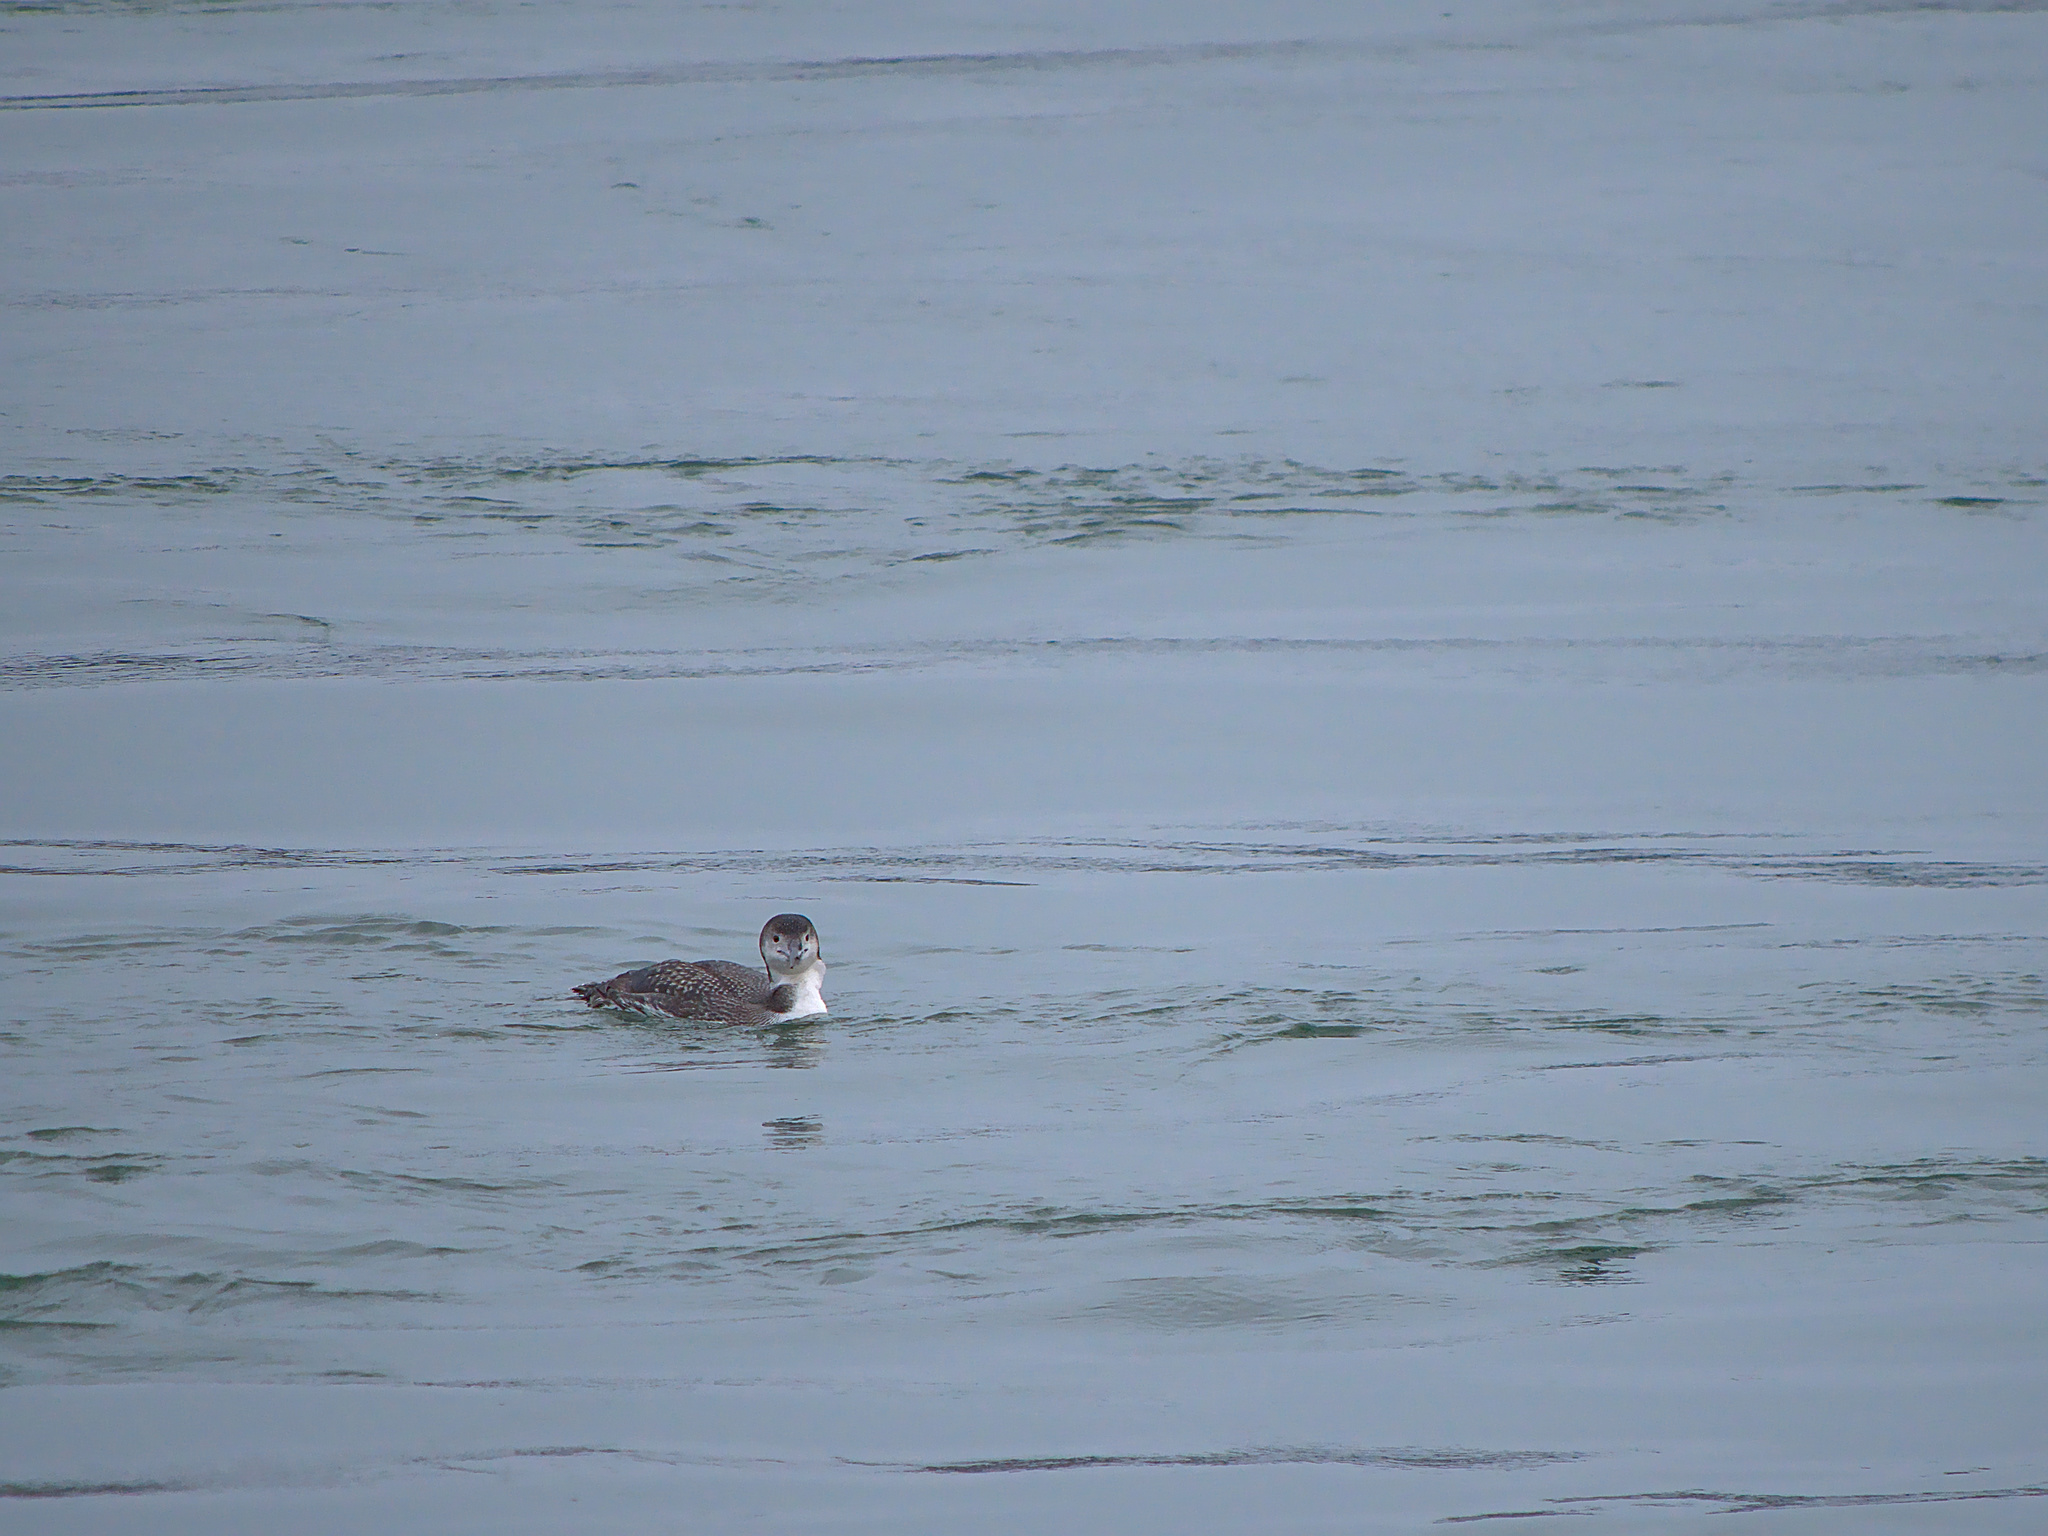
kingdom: Animalia
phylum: Chordata
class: Aves
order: Gaviiformes
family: Gaviidae
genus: Gavia
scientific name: Gavia immer
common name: Common loon
